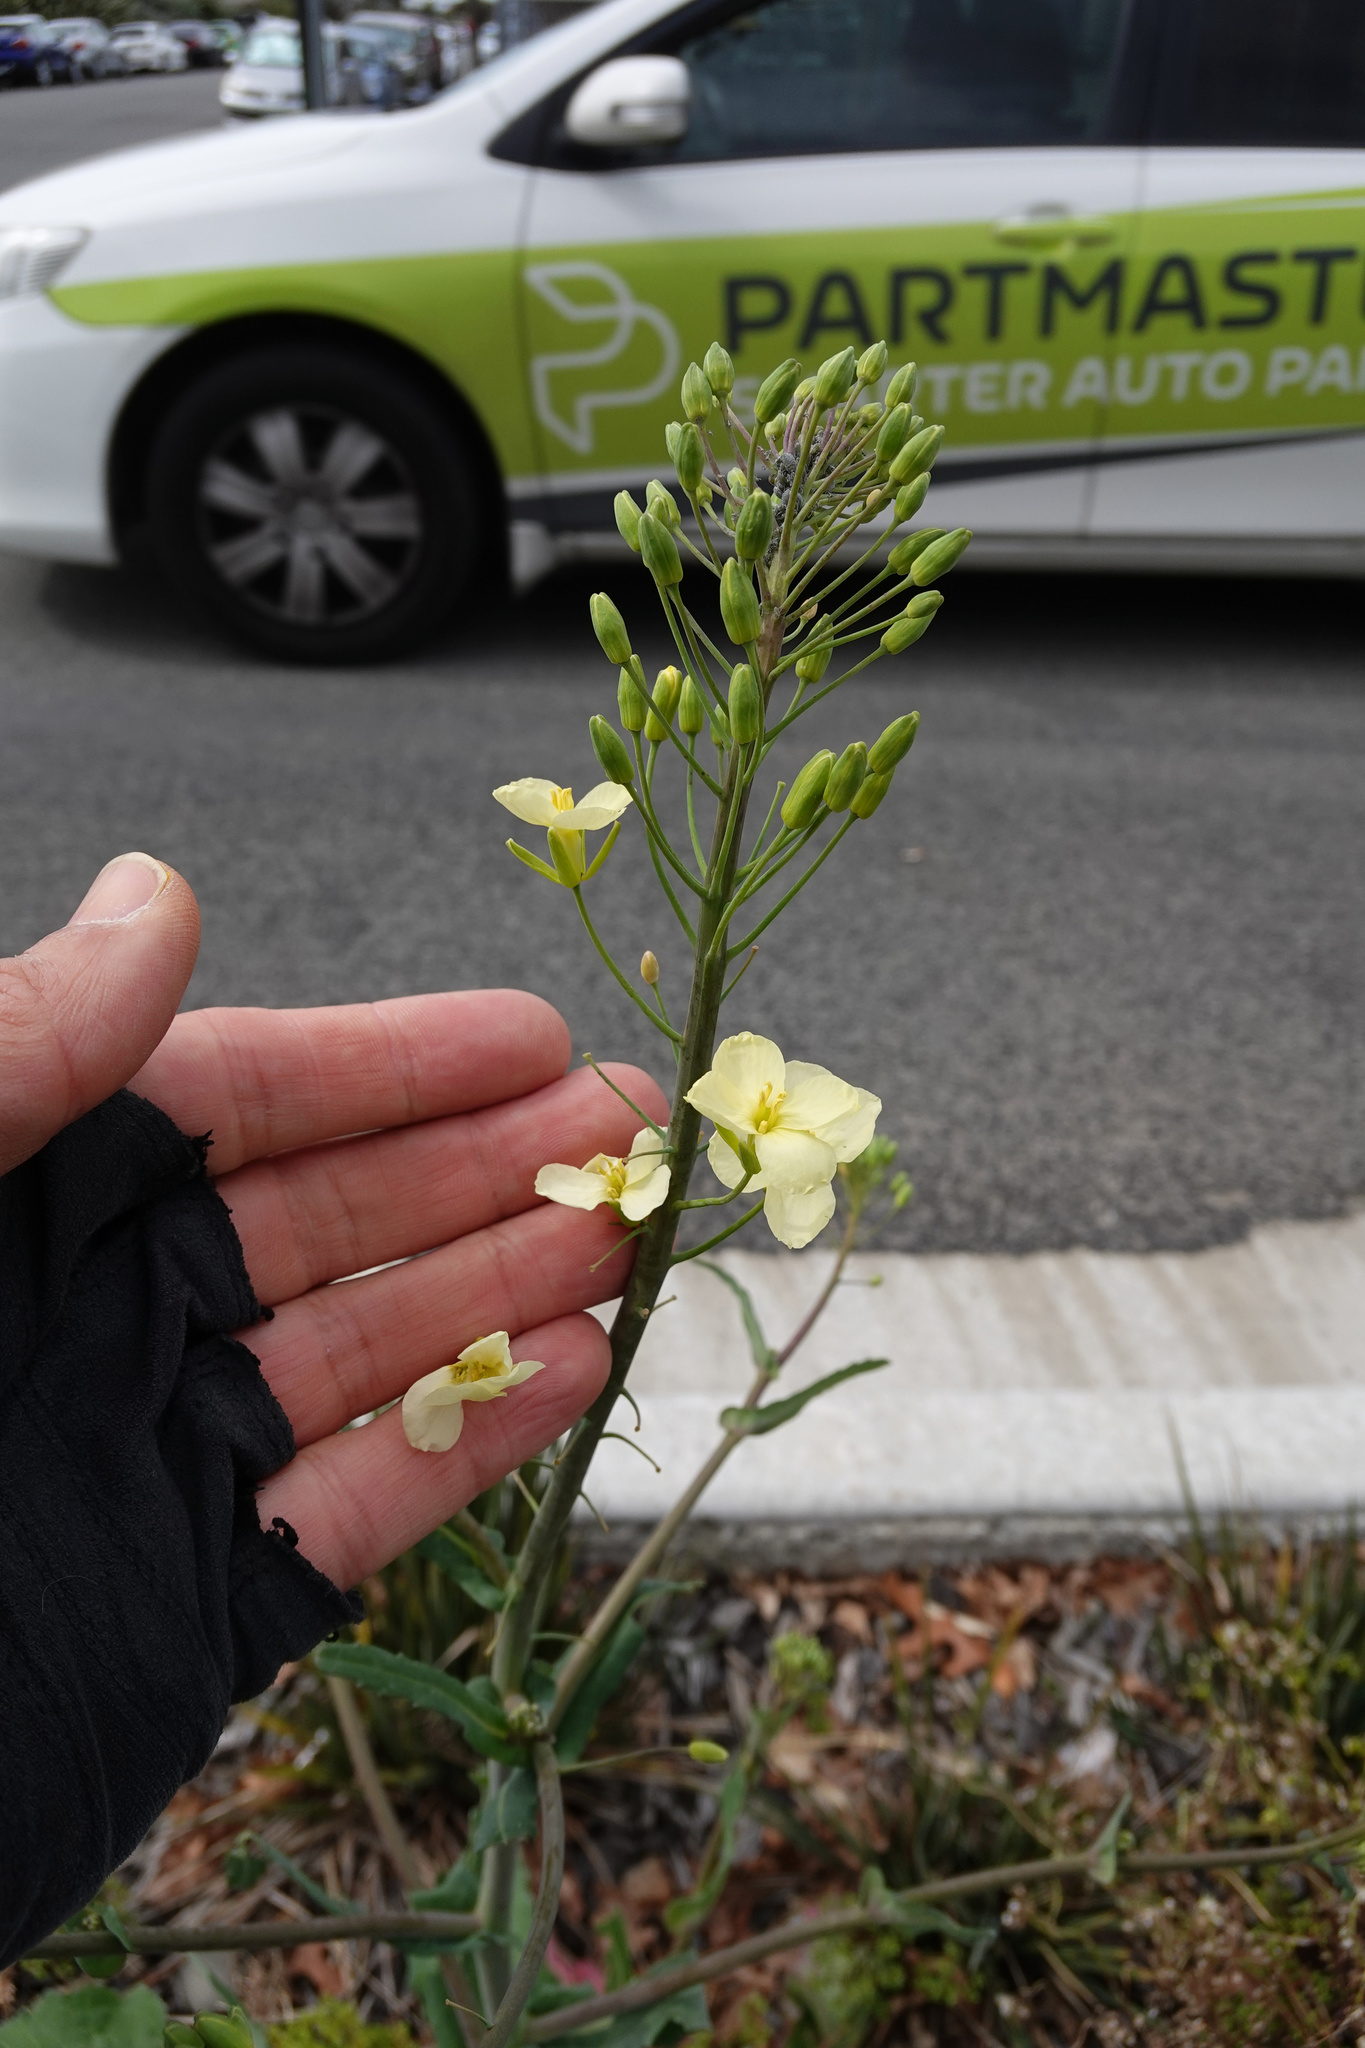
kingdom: Plantae
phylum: Tracheophyta
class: Magnoliopsida
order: Brassicales
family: Brassicaceae
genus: Brassica
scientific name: Brassica oleracea
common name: Cabbage
